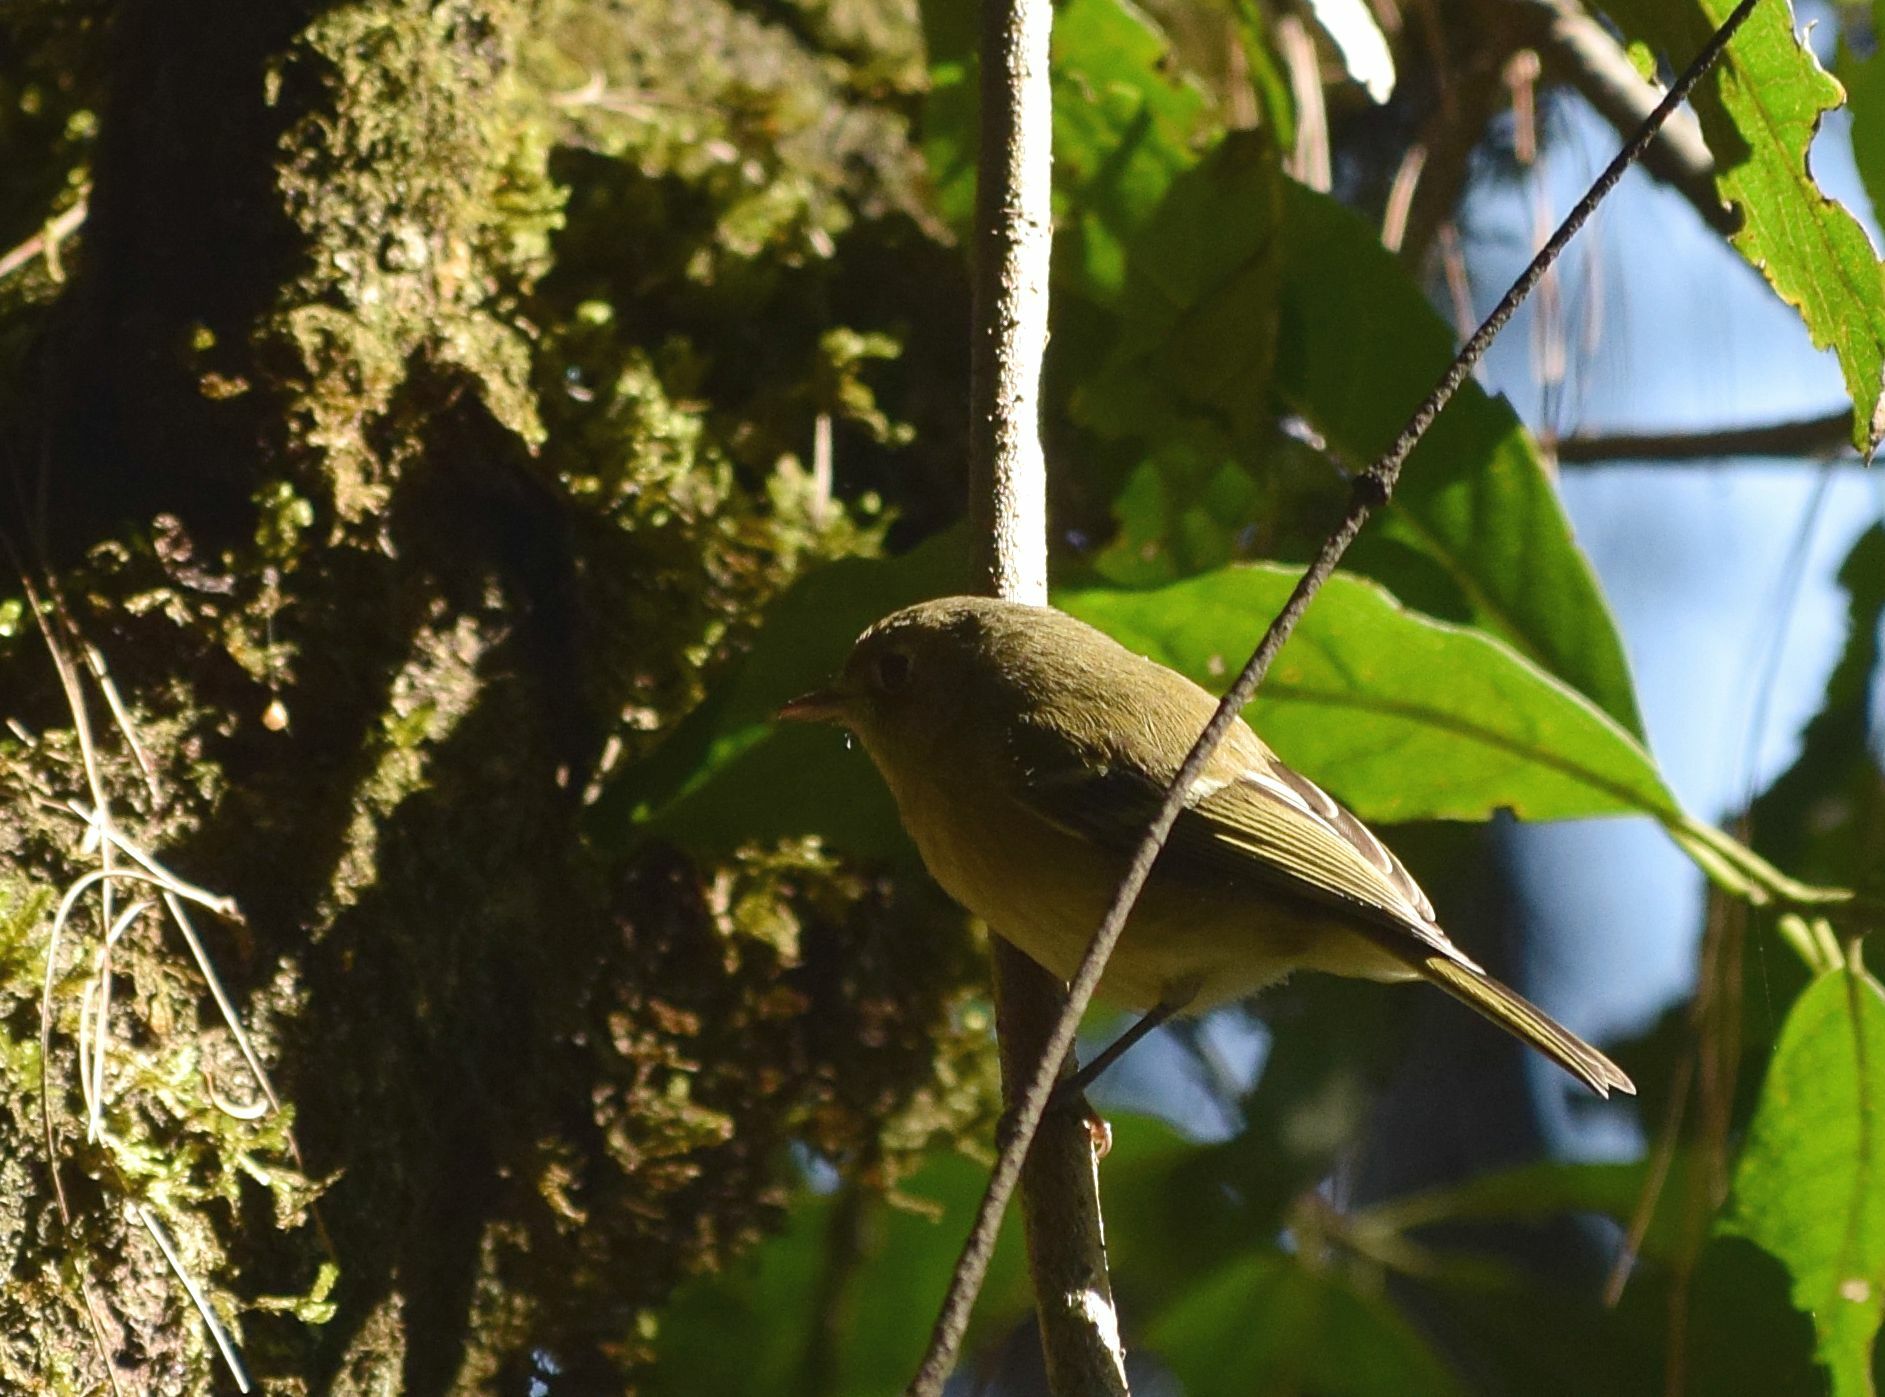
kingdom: Animalia
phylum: Chordata
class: Aves
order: Passeriformes
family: Vireonidae
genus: Vireo
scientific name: Vireo huttoni
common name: Hutton's vireo
